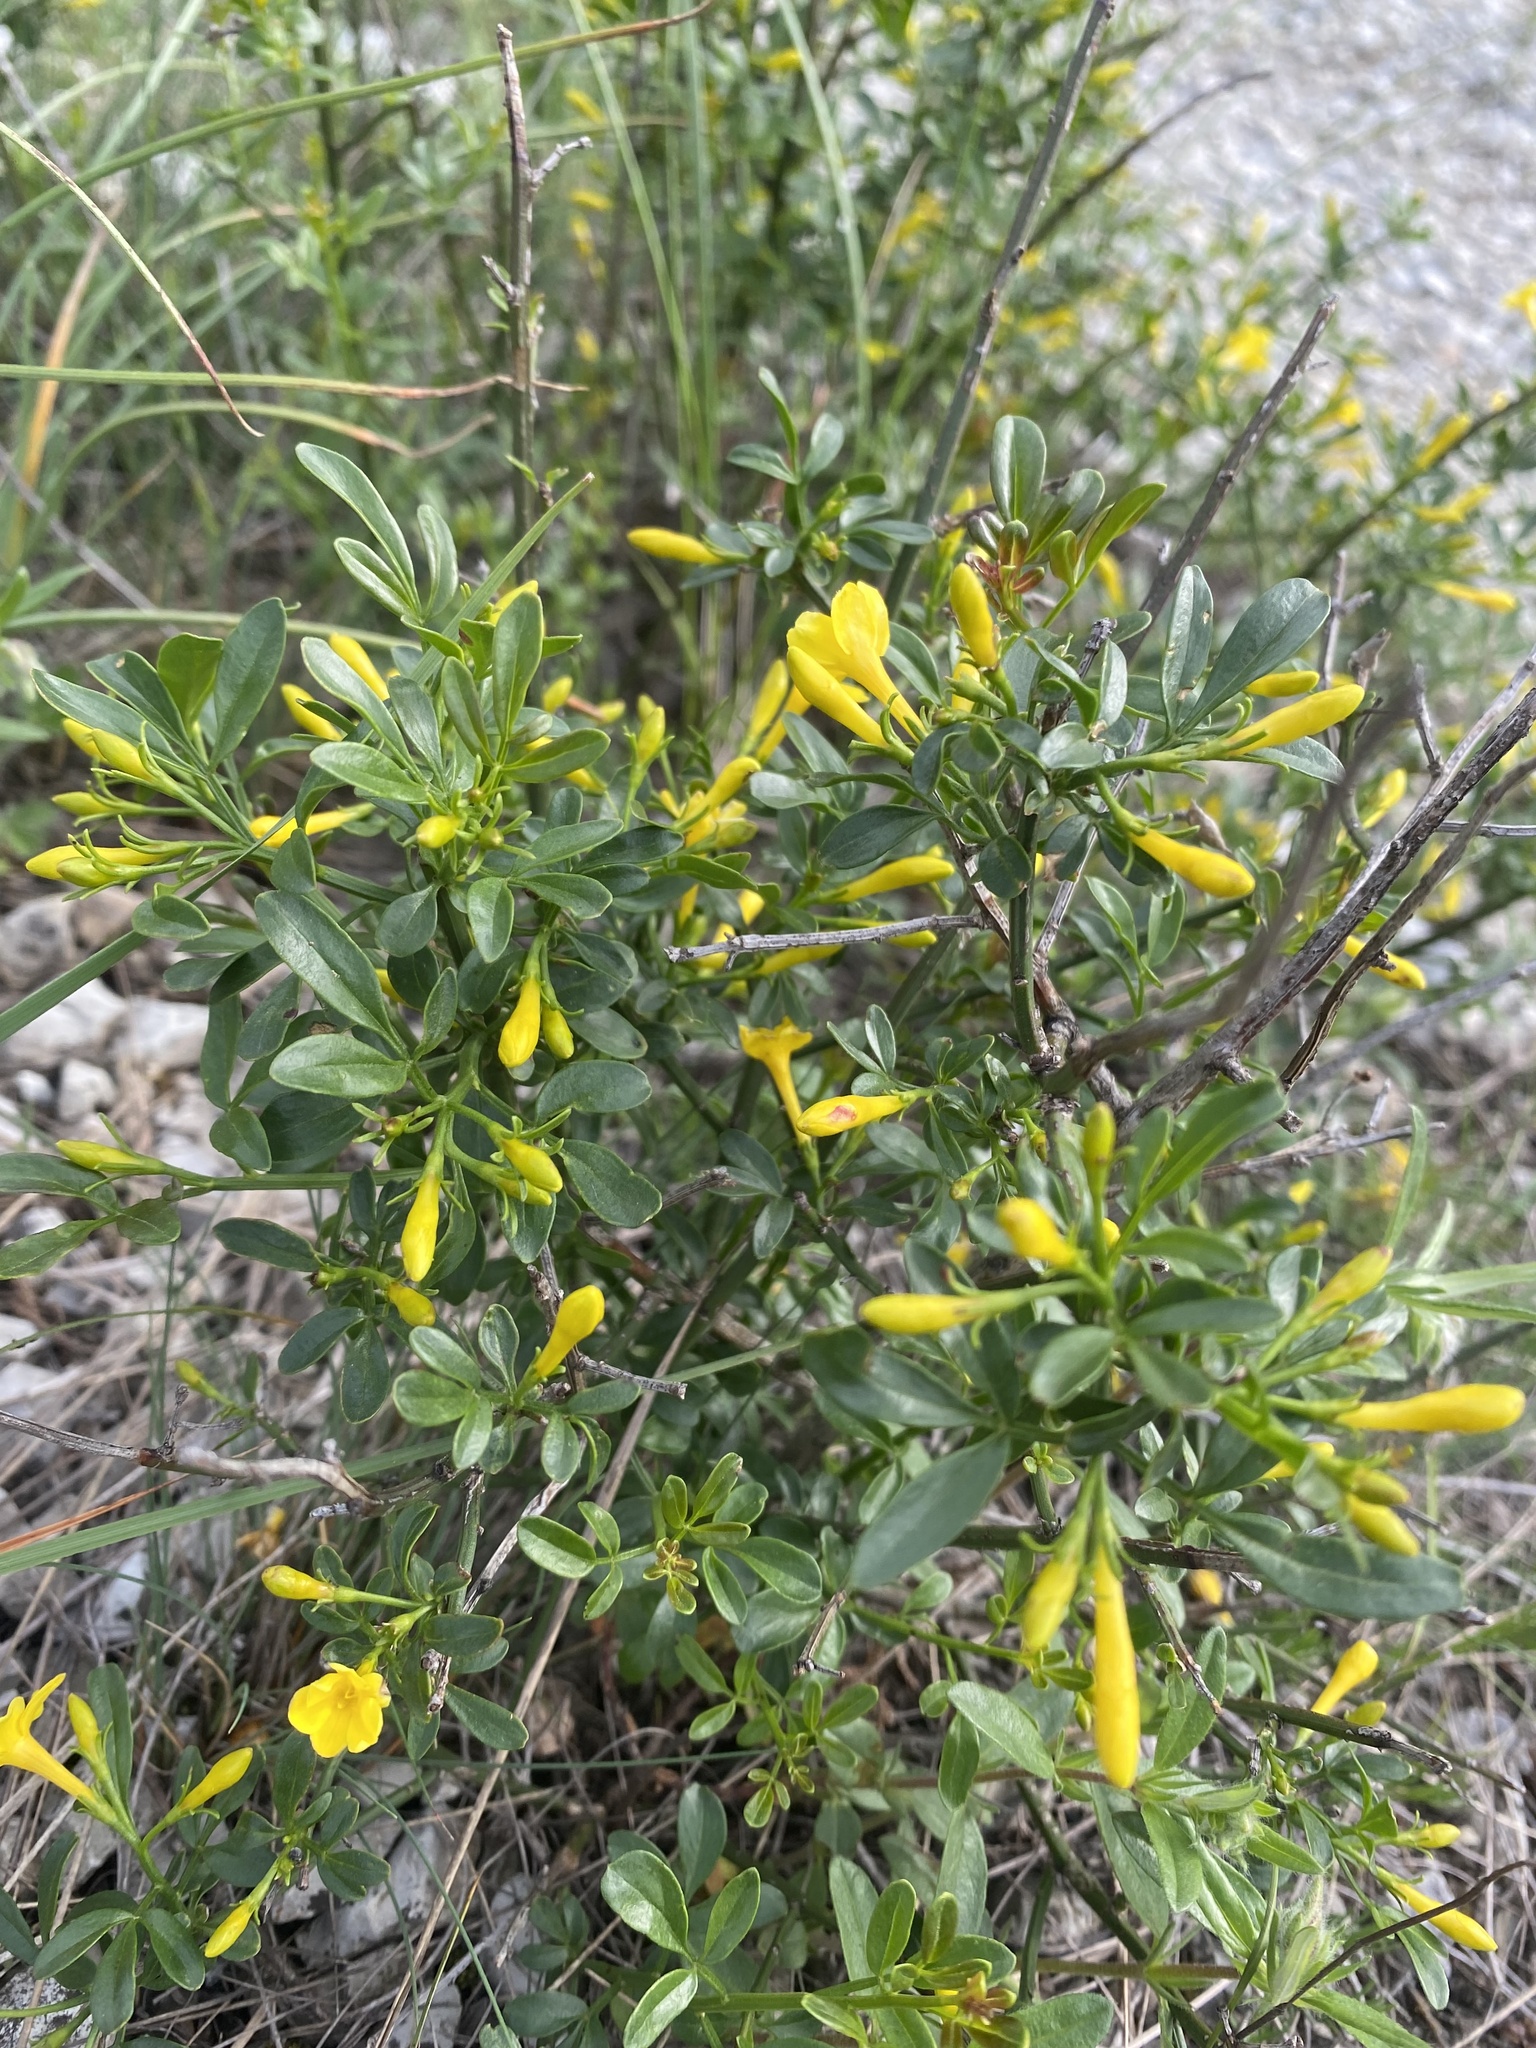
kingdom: Plantae
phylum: Tracheophyta
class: Magnoliopsida
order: Lamiales
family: Oleaceae
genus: Chrysojasminum
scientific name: Chrysojasminum fruticans
